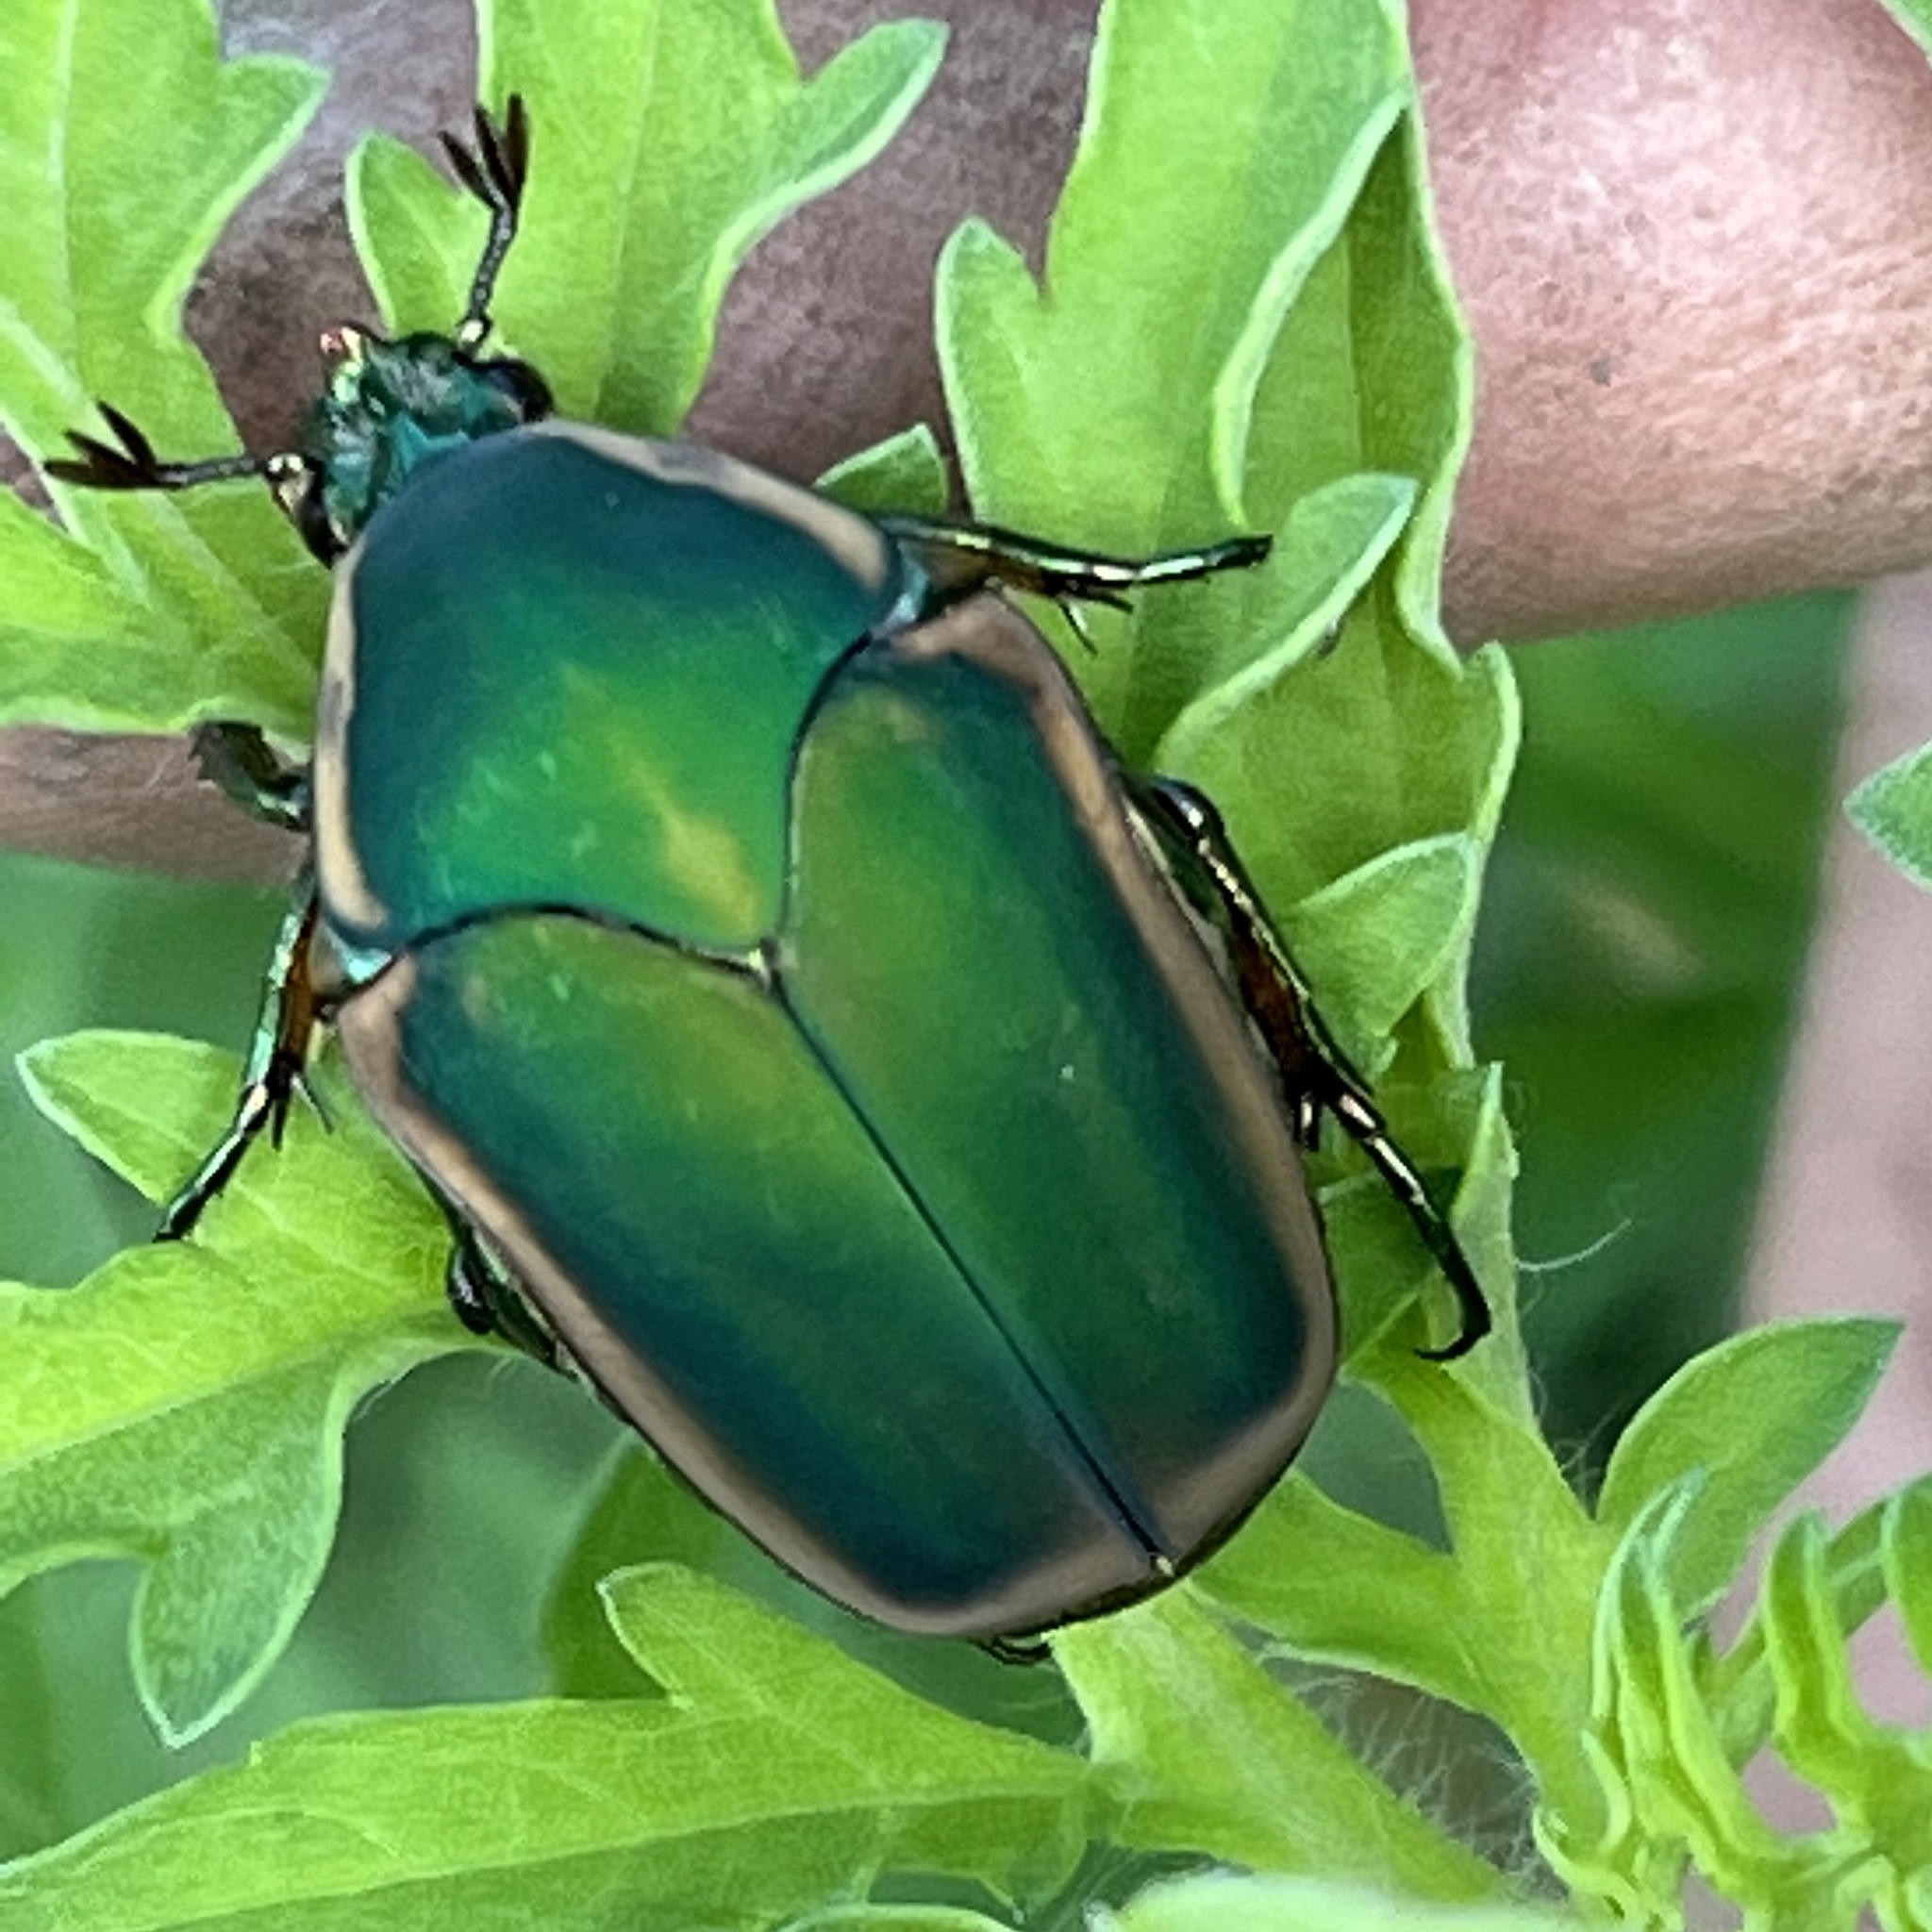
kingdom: Animalia
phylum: Arthropoda
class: Insecta
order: Coleoptera
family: Scarabaeidae
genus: Cotinis
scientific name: Cotinis nitida
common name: Common green june beetle
